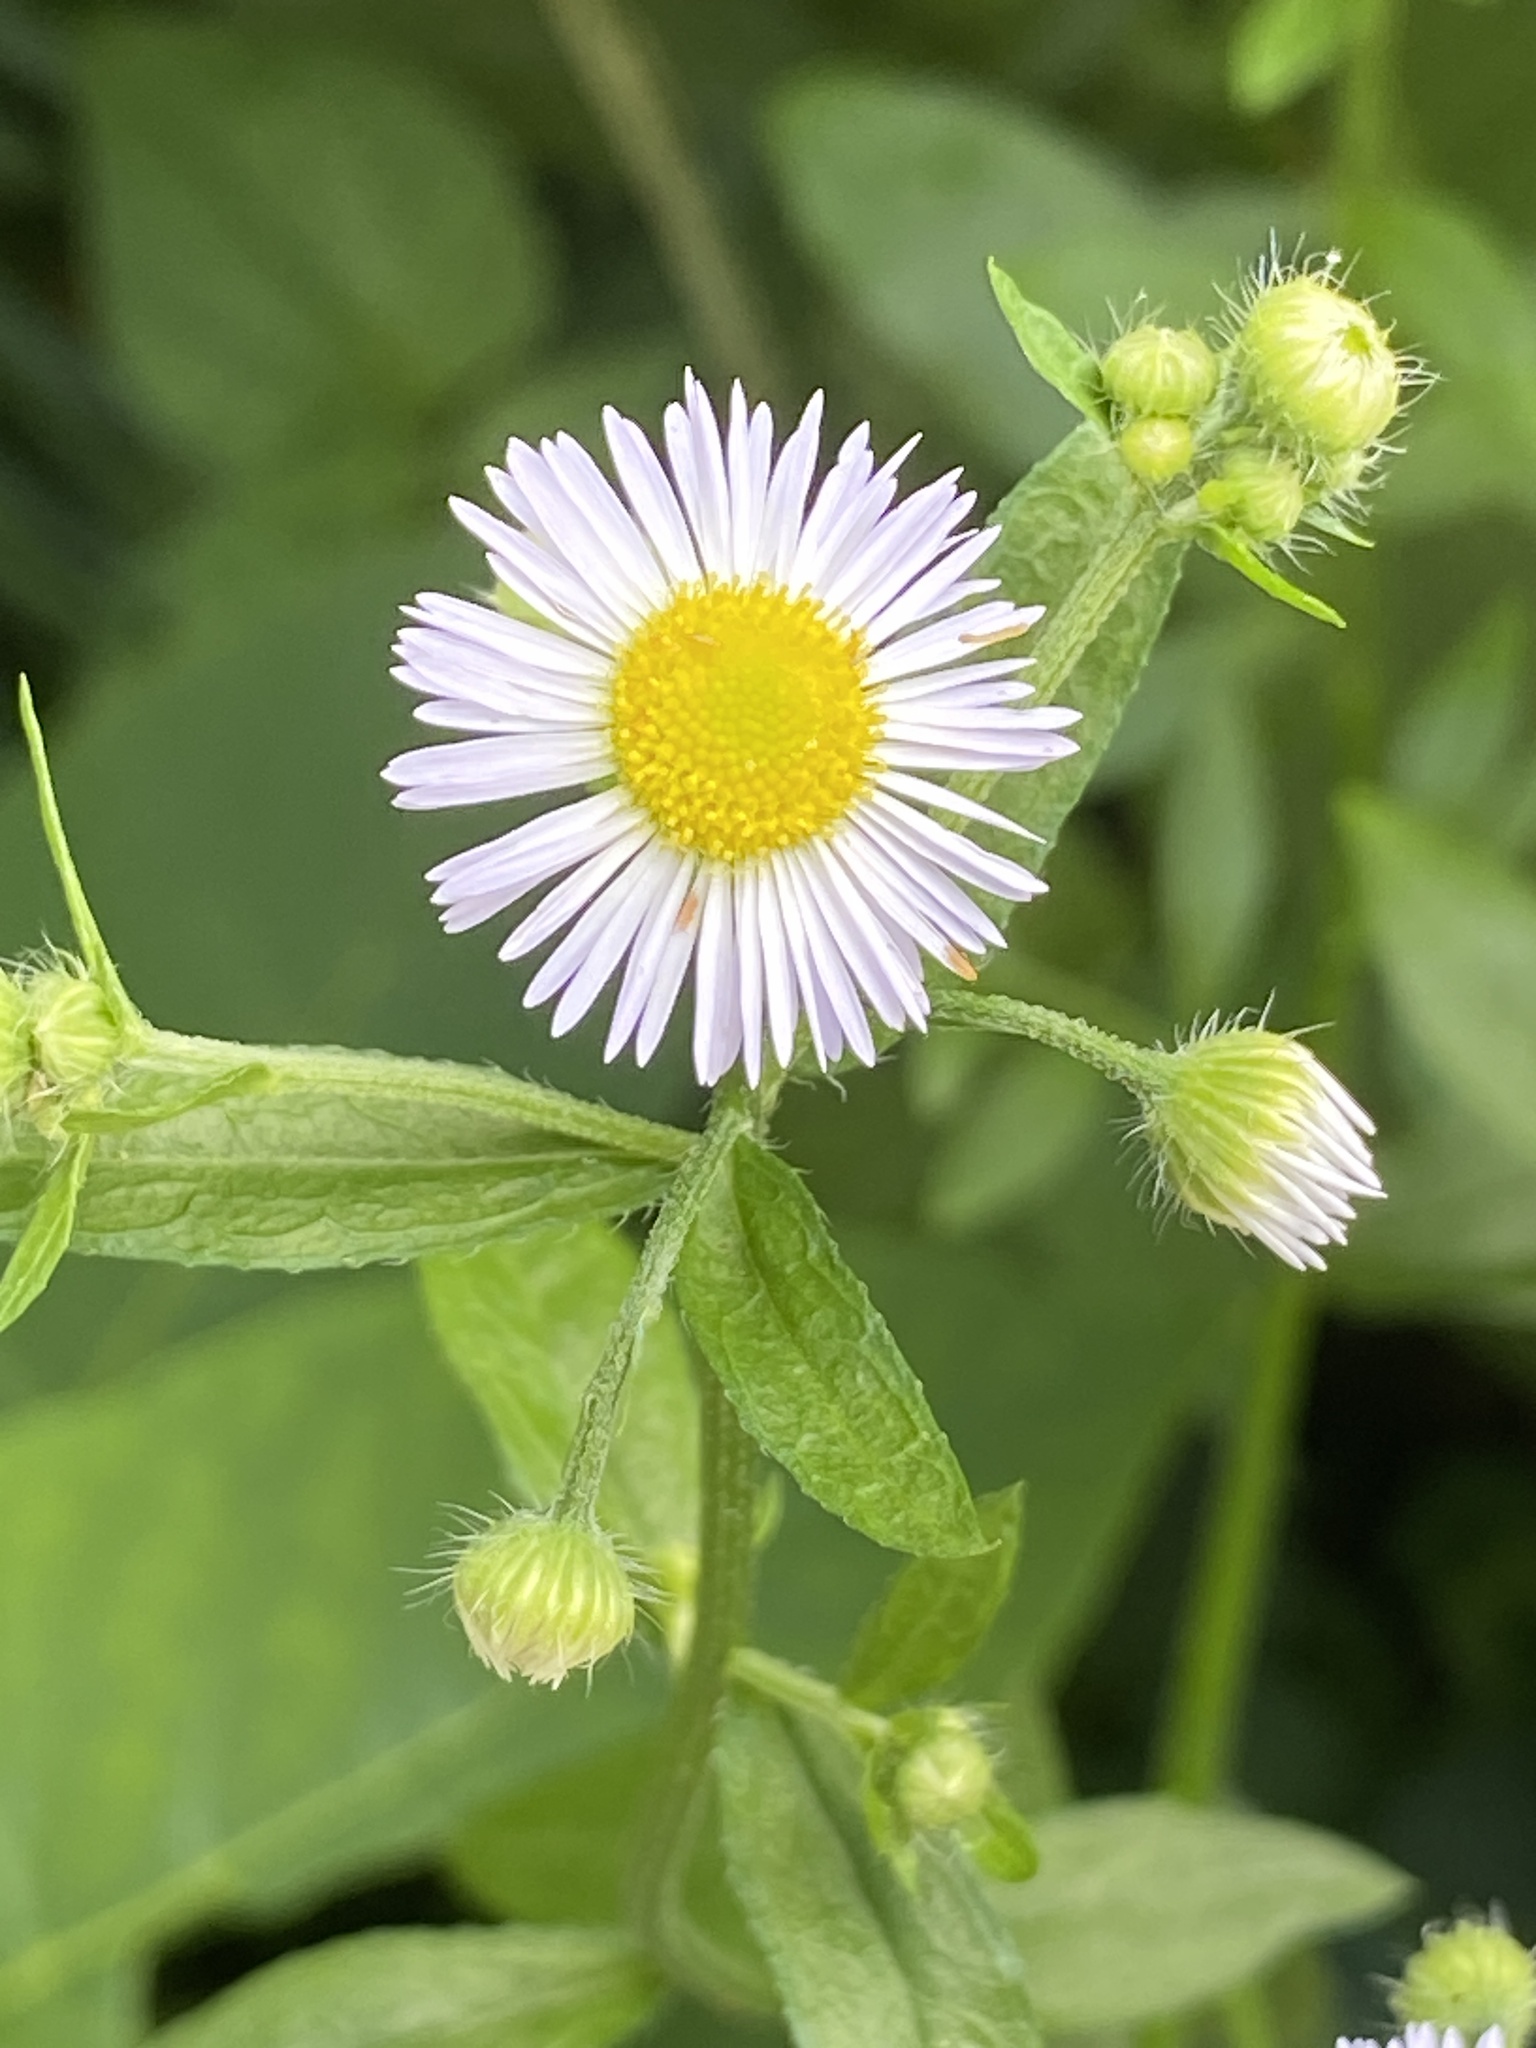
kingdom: Plantae
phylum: Tracheophyta
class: Magnoliopsida
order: Asterales
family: Asteraceae
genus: Erigeron
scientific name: Erigeron annuus
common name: Tall fleabane
